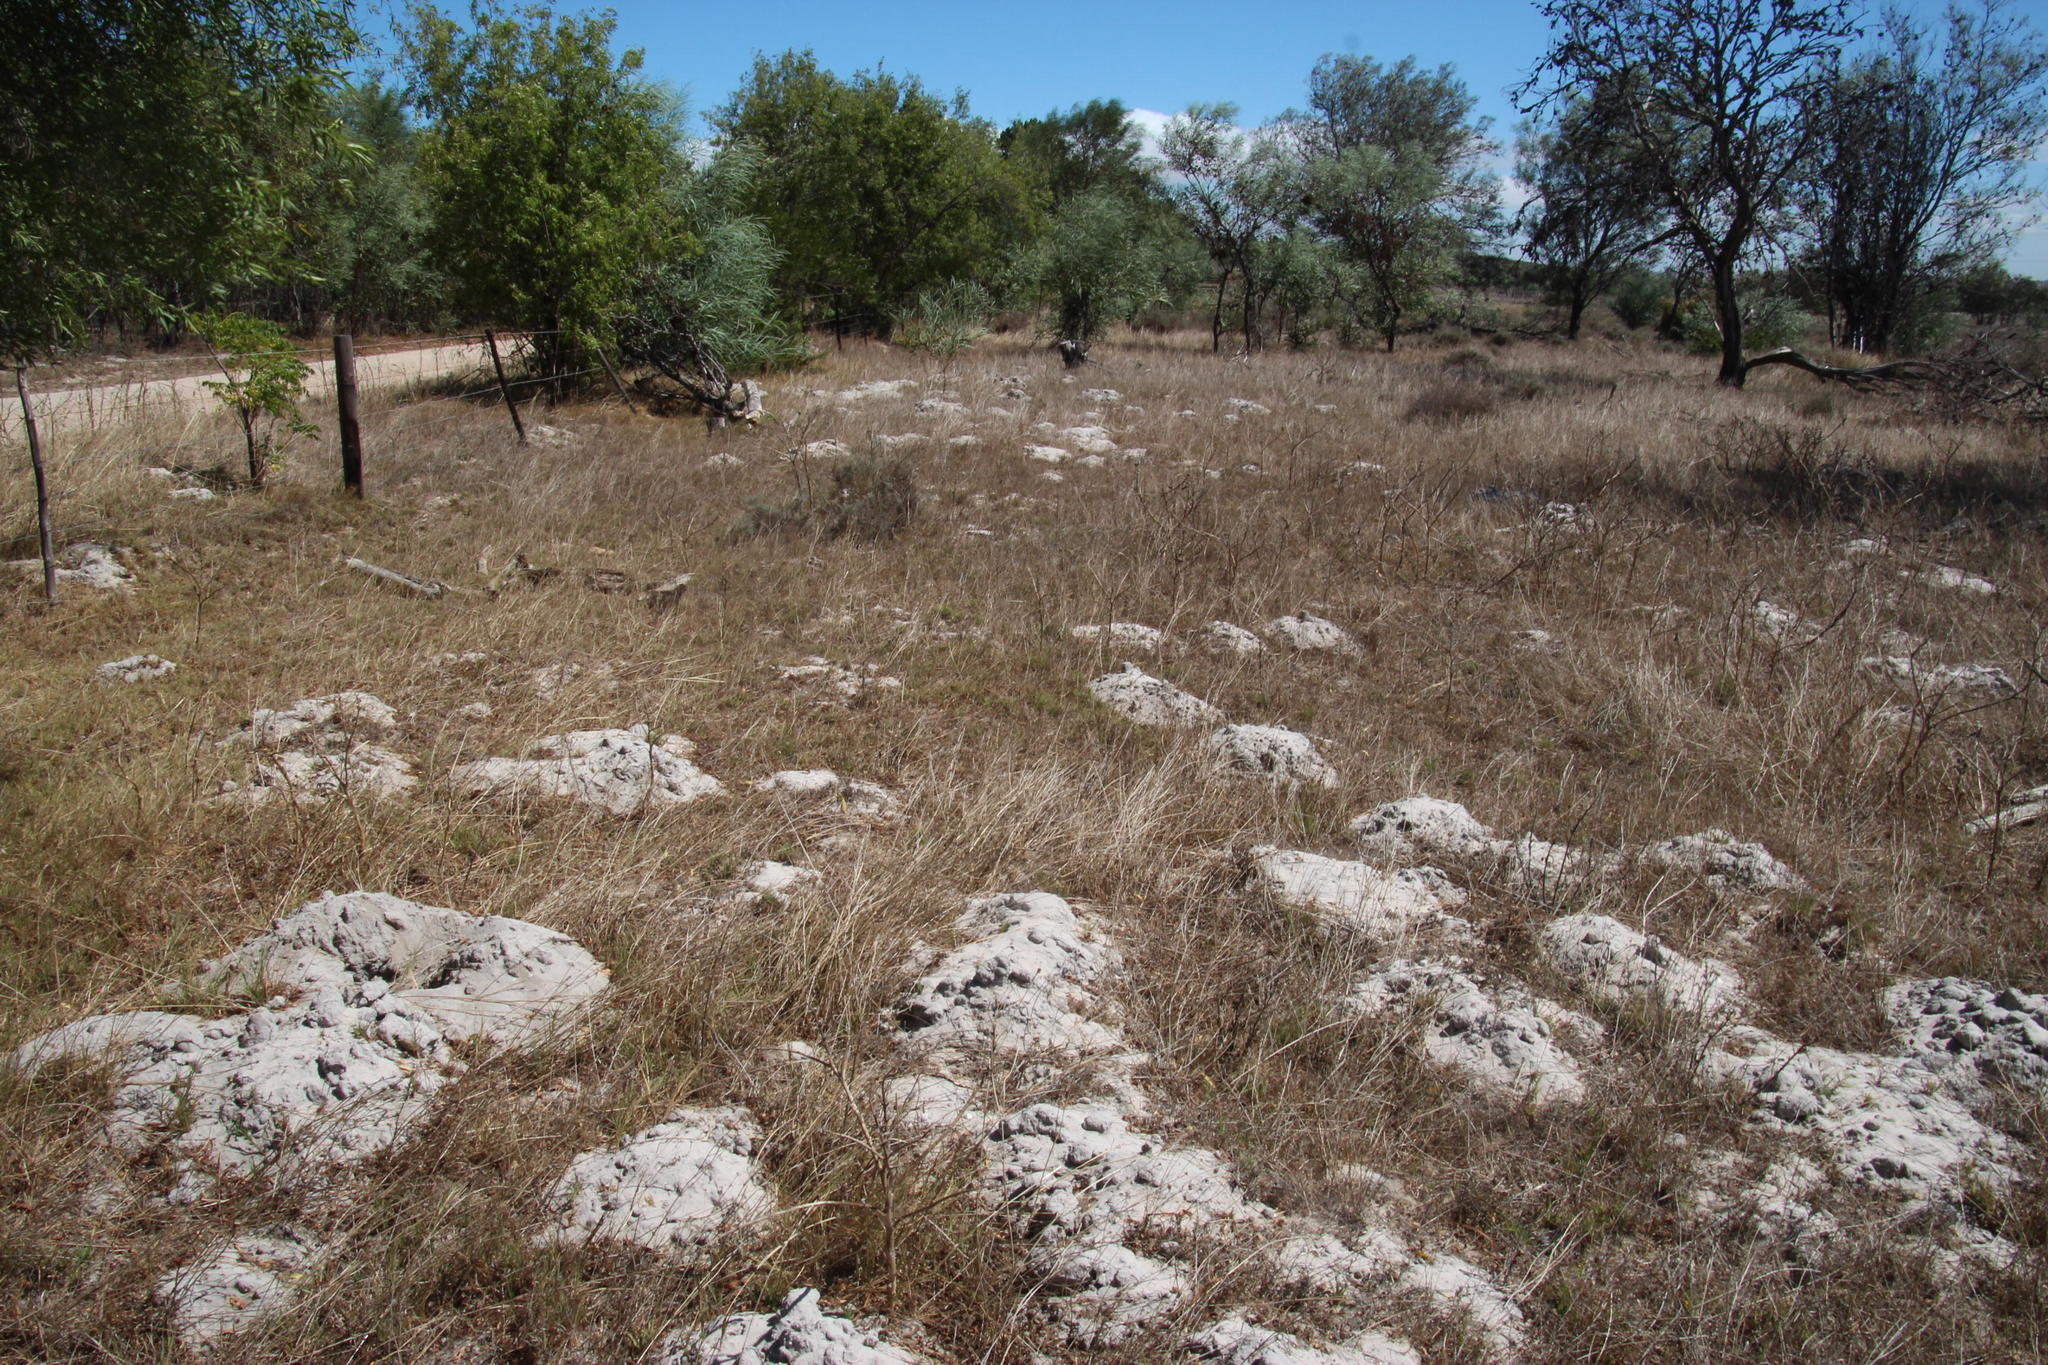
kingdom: Animalia
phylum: Chordata
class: Mammalia
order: Rodentia
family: Bathyergidae
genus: Bathyergus
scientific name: Bathyergus suillus
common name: Cape dune mole rat
